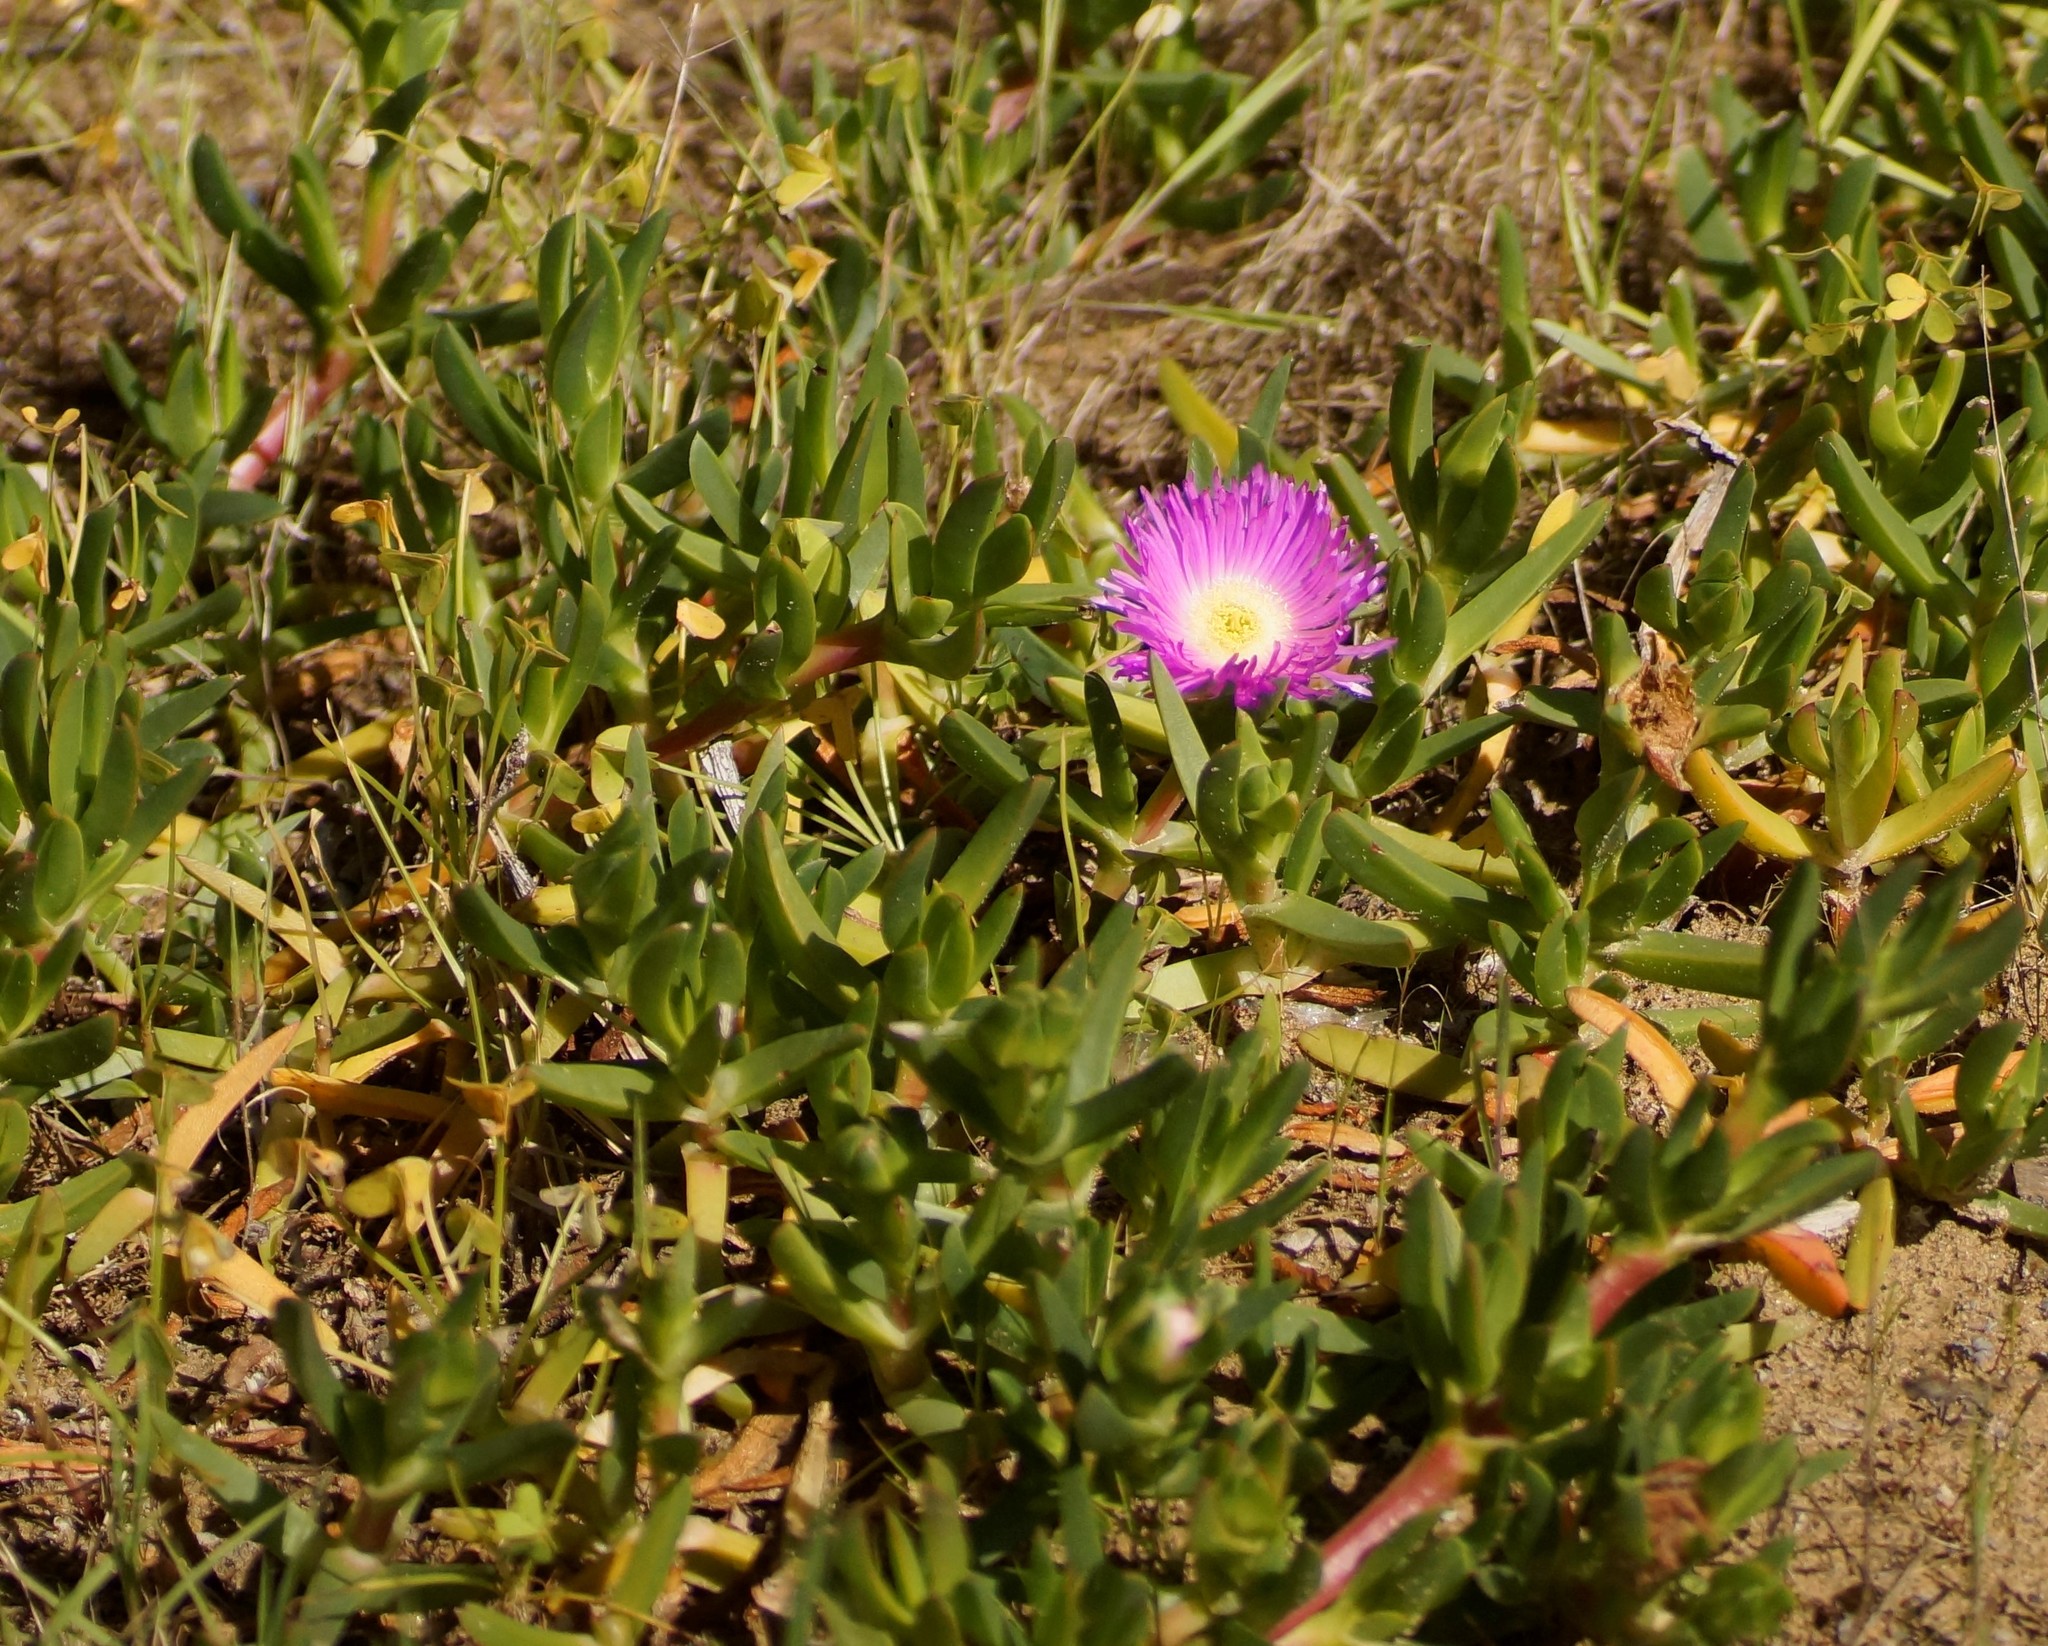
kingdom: Plantae
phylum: Tracheophyta
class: Magnoliopsida
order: Caryophyllales
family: Aizoaceae
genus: Carpobrotus
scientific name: Carpobrotus rossii
